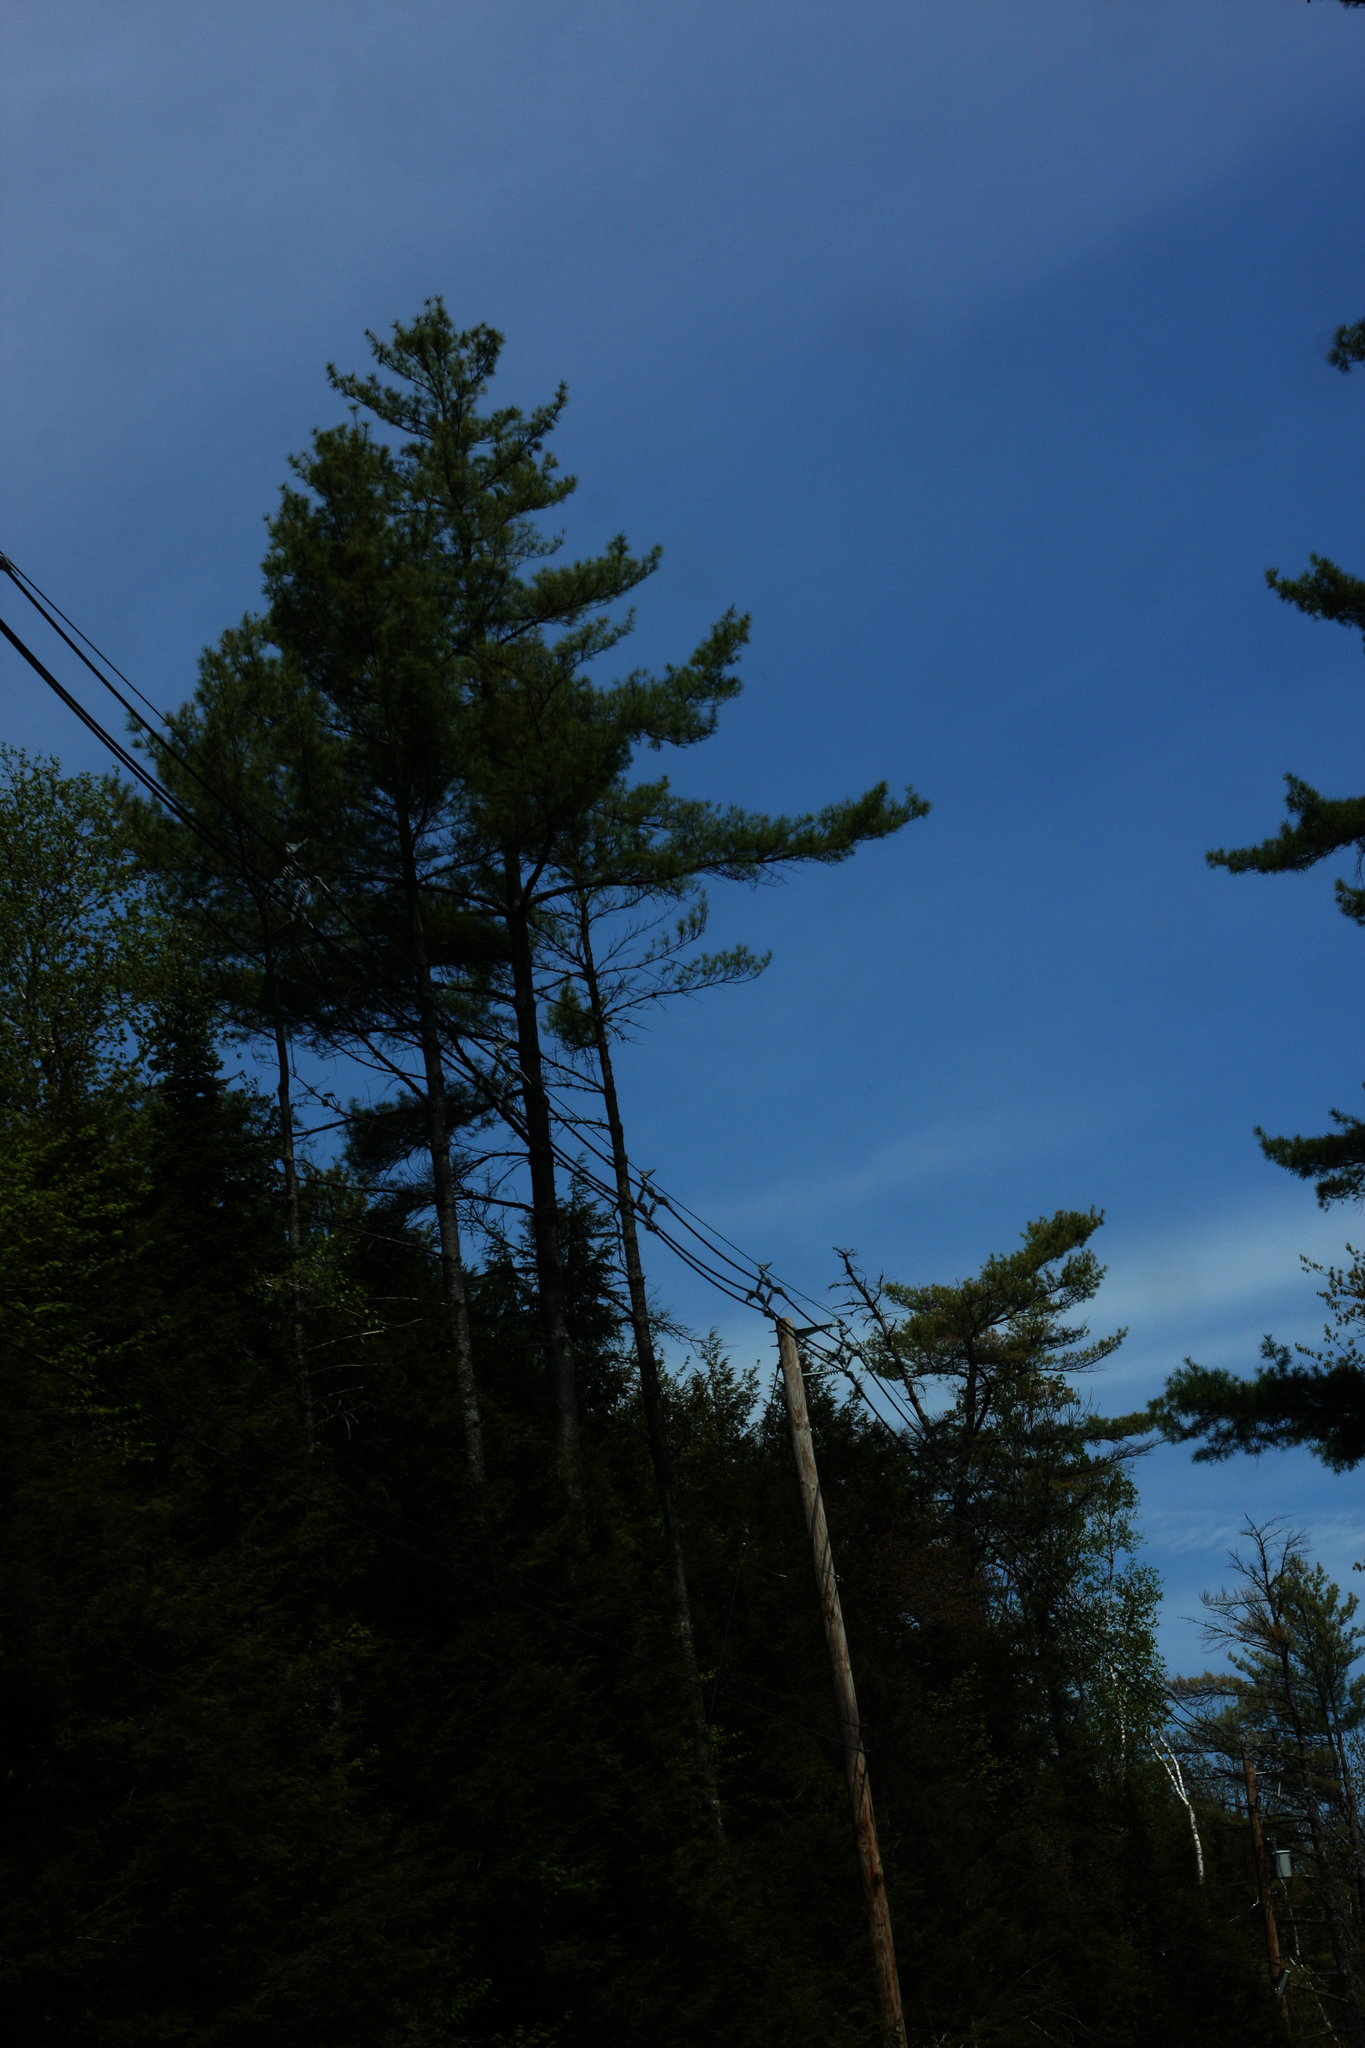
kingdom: Plantae
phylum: Tracheophyta
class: Pinopsida
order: Pinales
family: Pinaceae
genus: Pinus
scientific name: Pinus strobus
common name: Weymouth pine
